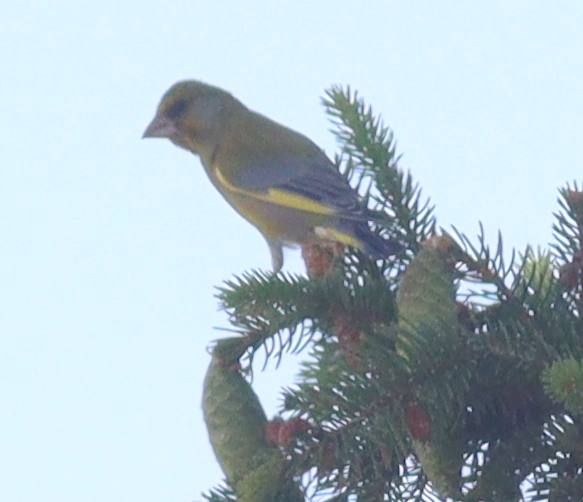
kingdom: Plantae
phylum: Tracheophyta
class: Liliopsida
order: Poales
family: Poaceae
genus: Chloris
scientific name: Chloris chloris
